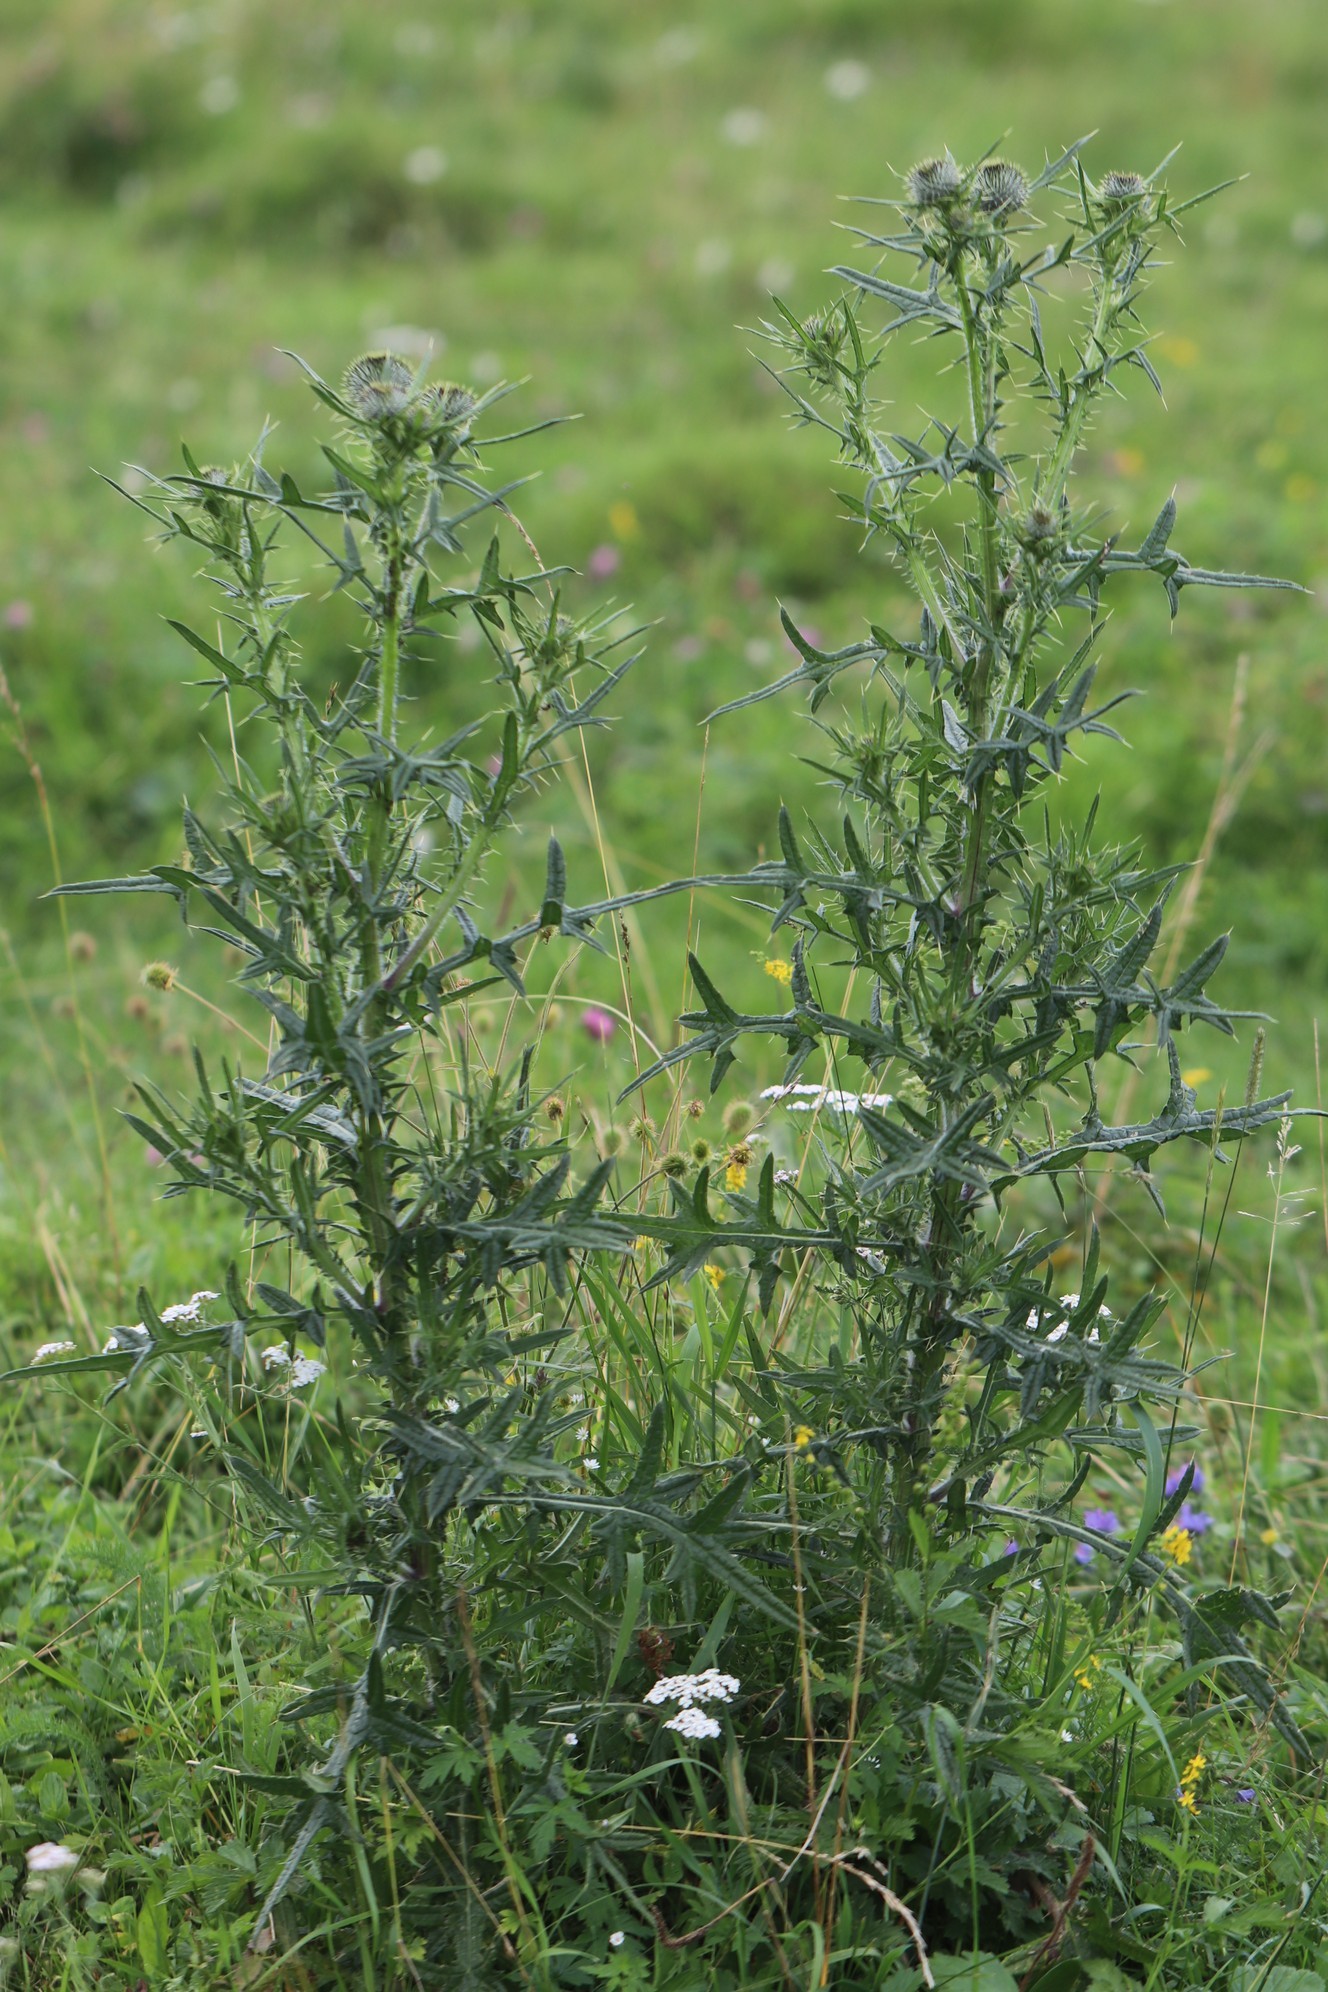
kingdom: Plantae
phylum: Tracheophyta
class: Magnoliopsida
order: Asterales
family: Asteraceae
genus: Cirsium
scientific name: Cirsium vulgare
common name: Bull thistle
